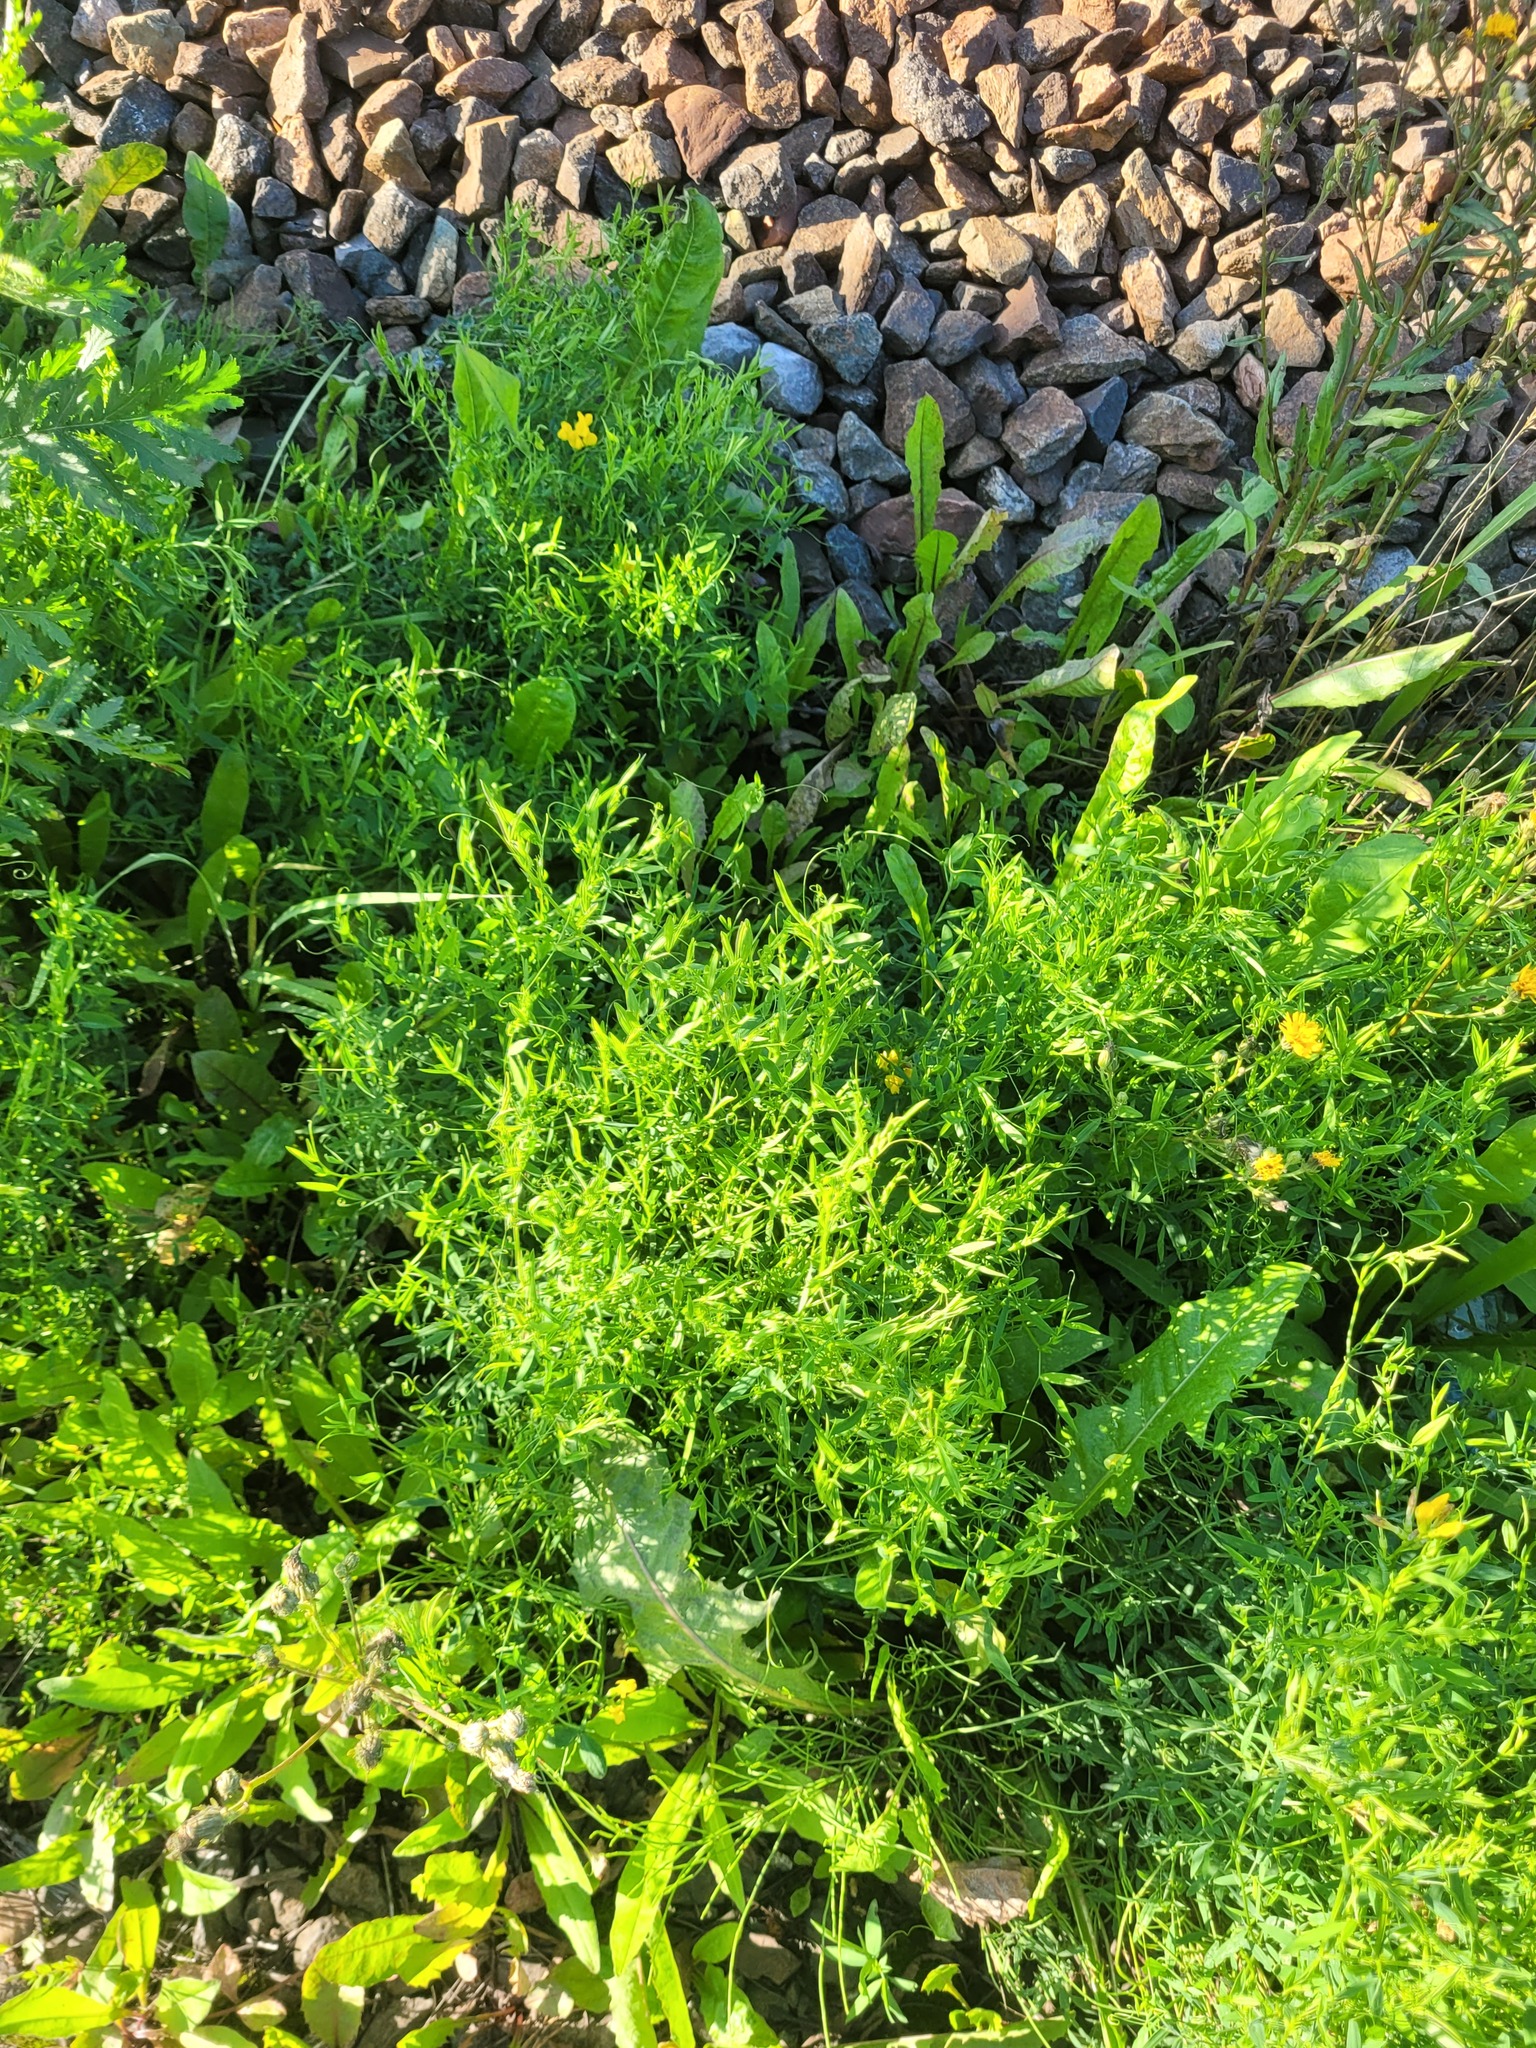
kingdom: Plantae
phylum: Tracheophyta
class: Magnoliopsida
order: Fabales
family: Fabaceae
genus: Lathyrus
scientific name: Lathyrus pratensis
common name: Meadow vetchling
